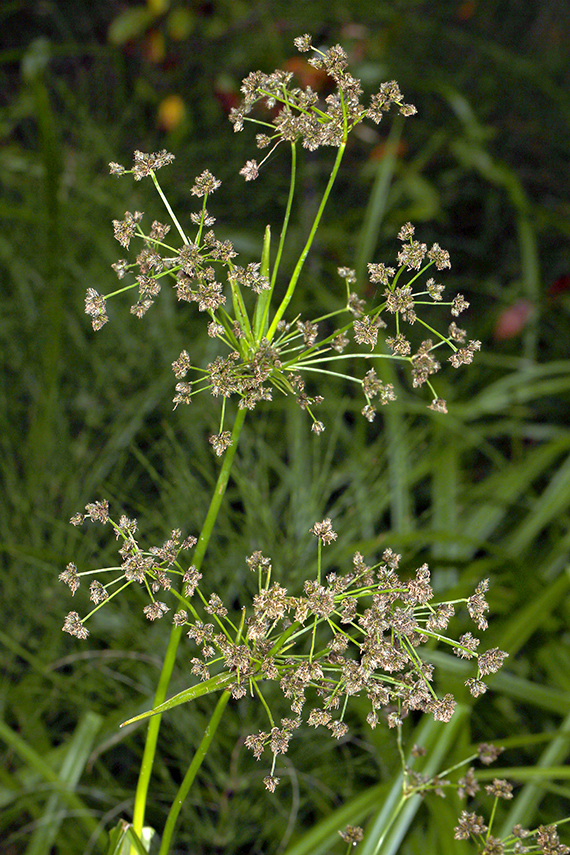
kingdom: Plantae
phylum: Tracheophyta
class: Liliopsida
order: Poales
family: Cyperaceae
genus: Scirpus
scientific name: Scirpus microcarpus
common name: Panicled bulrush
